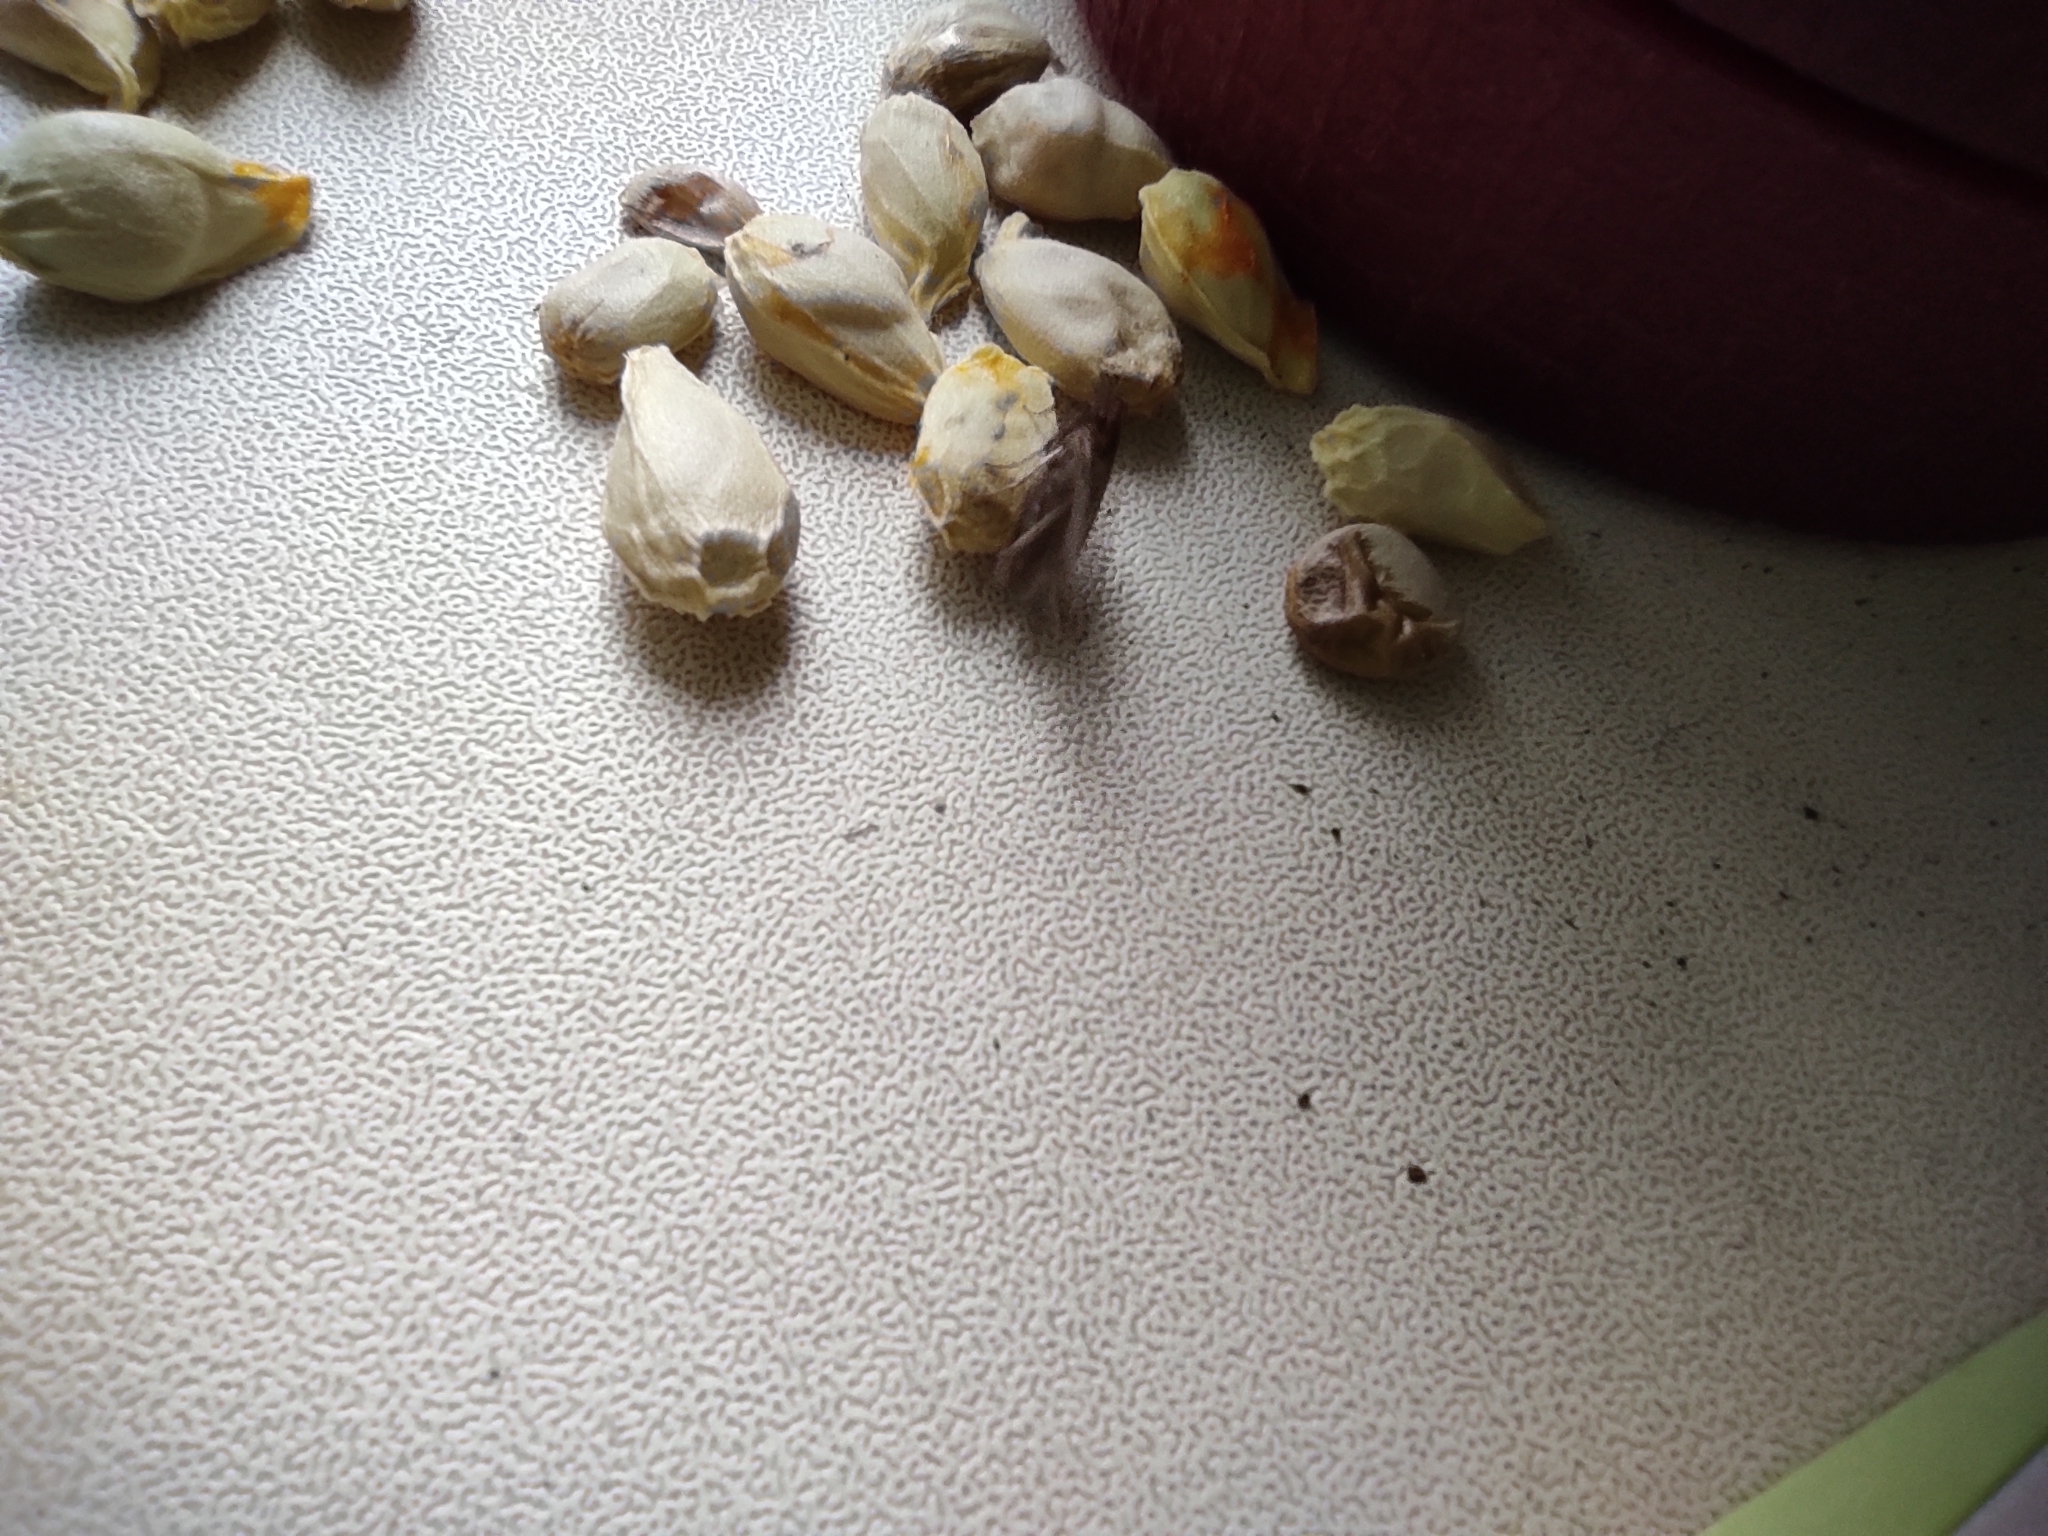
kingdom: Animalia
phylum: Arthropoda
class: Insecta
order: Lepidoptera
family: Pyralidae
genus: Plodia
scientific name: Plodia interpunctella
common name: Indian meal moth
